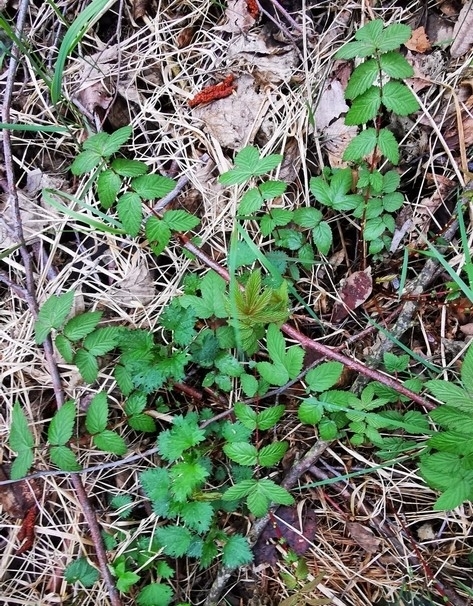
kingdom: Plantae
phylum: Tracheophyta
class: Magnoliopsida
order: Rosales
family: Rosaceae
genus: Filipendula
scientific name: Filipendula ulmaria
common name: Meadowsweet
